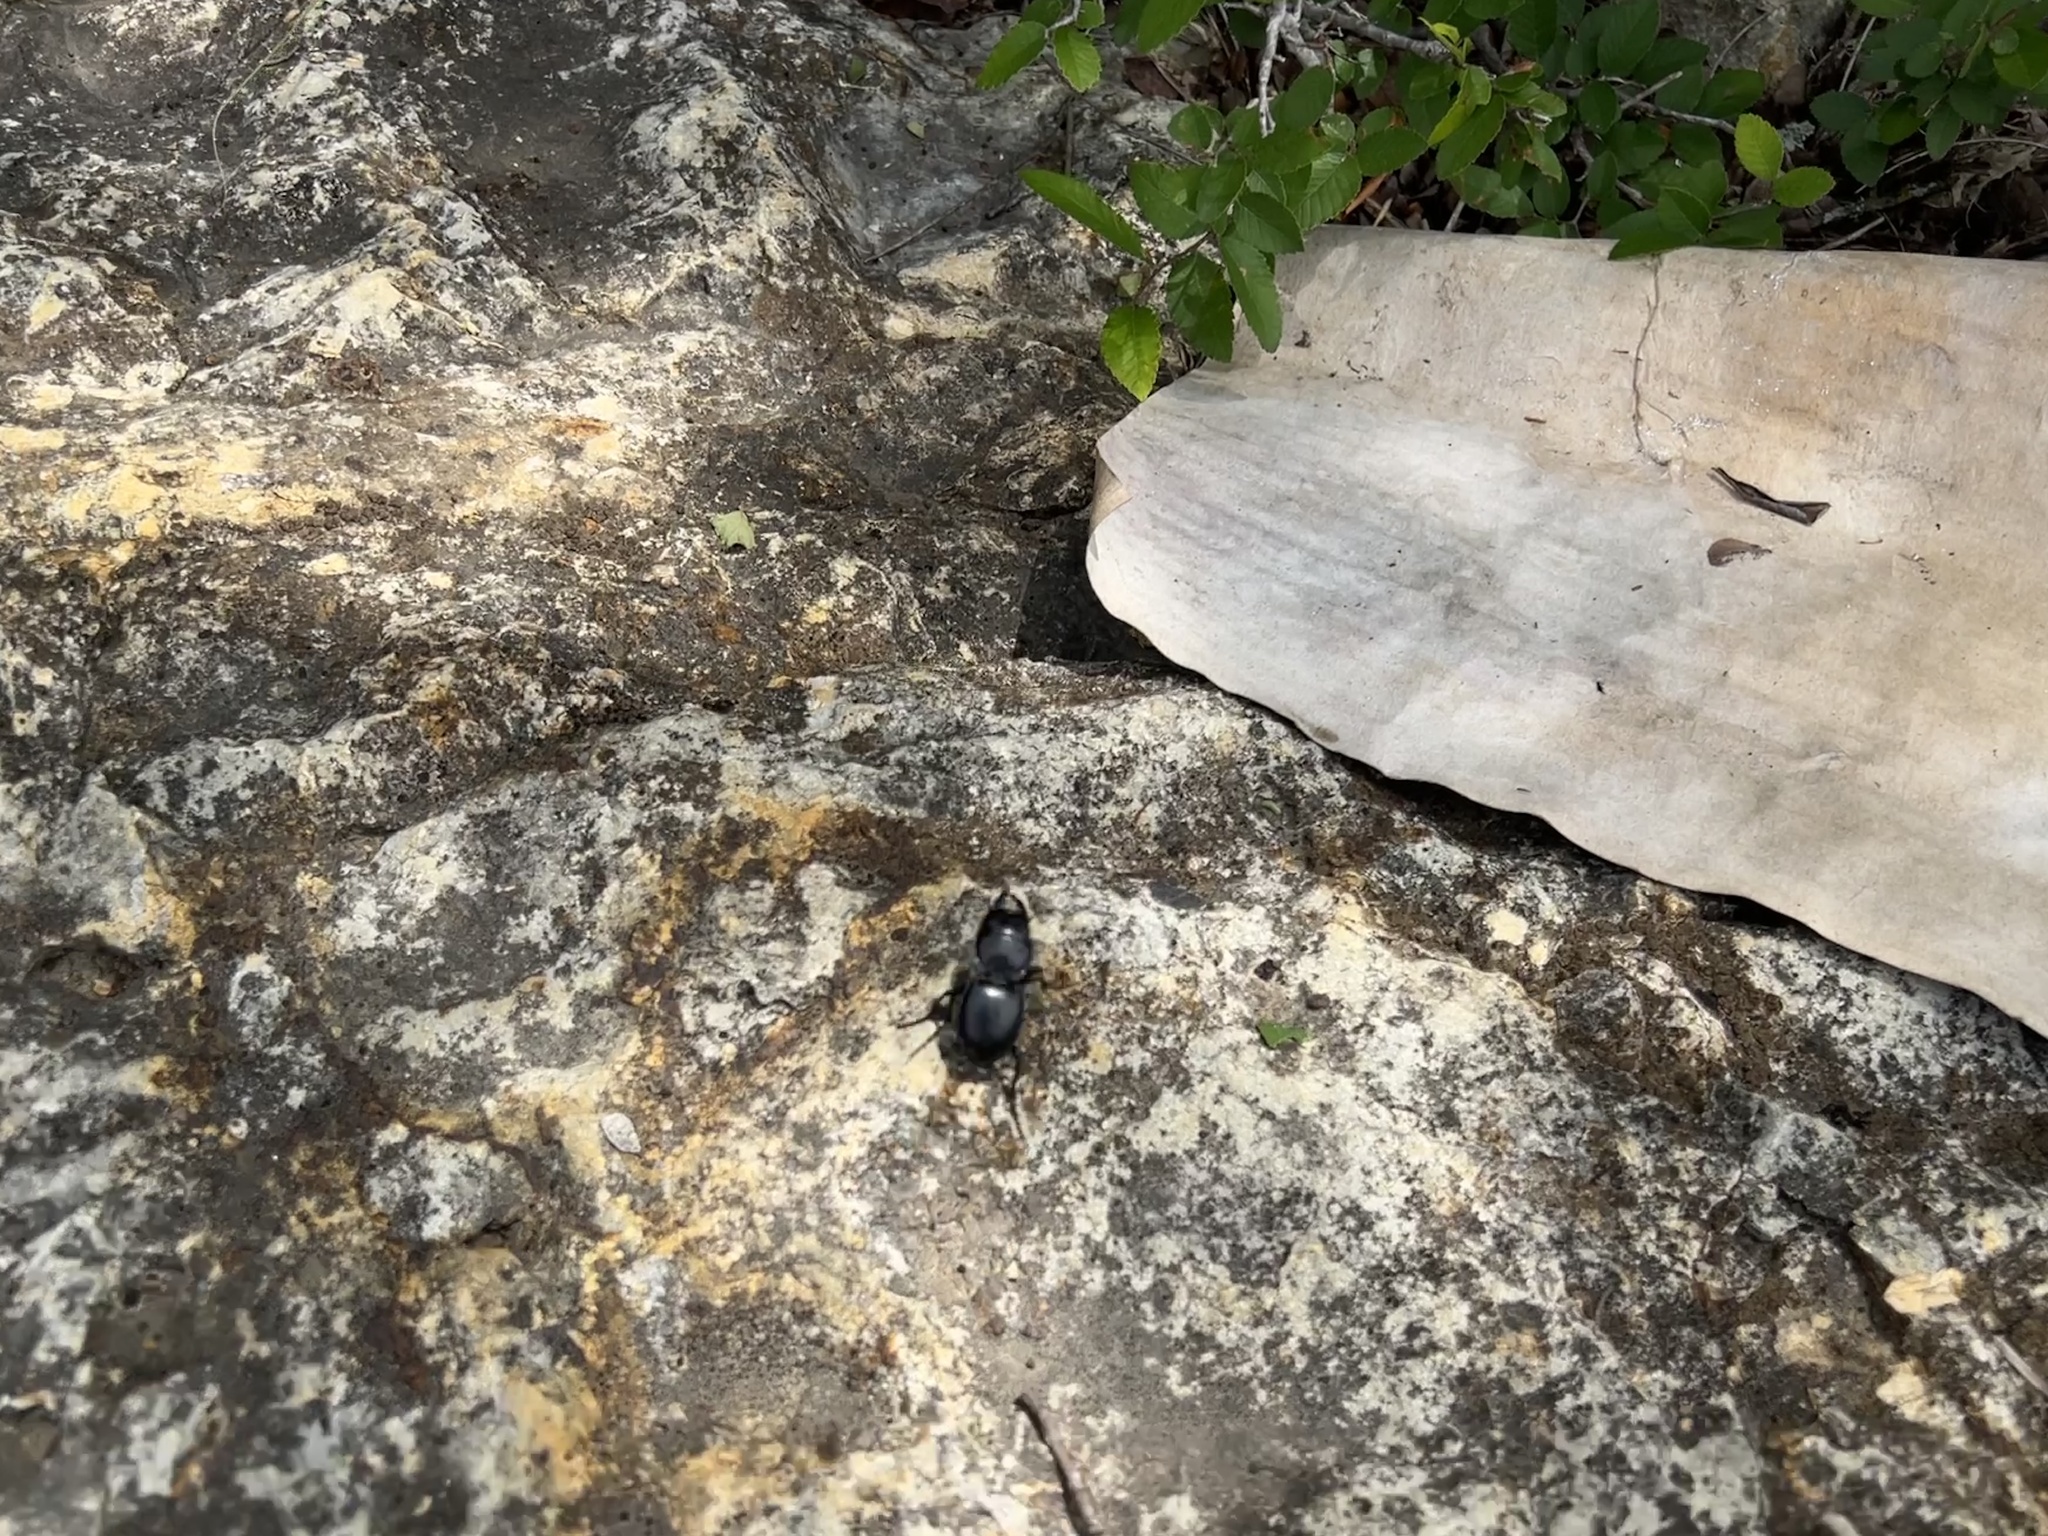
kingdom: Animalia
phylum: Arthropoda
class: Insecta
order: Coleoptera
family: Carabidae
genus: Pasimachus
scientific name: Pasimachus californicus
